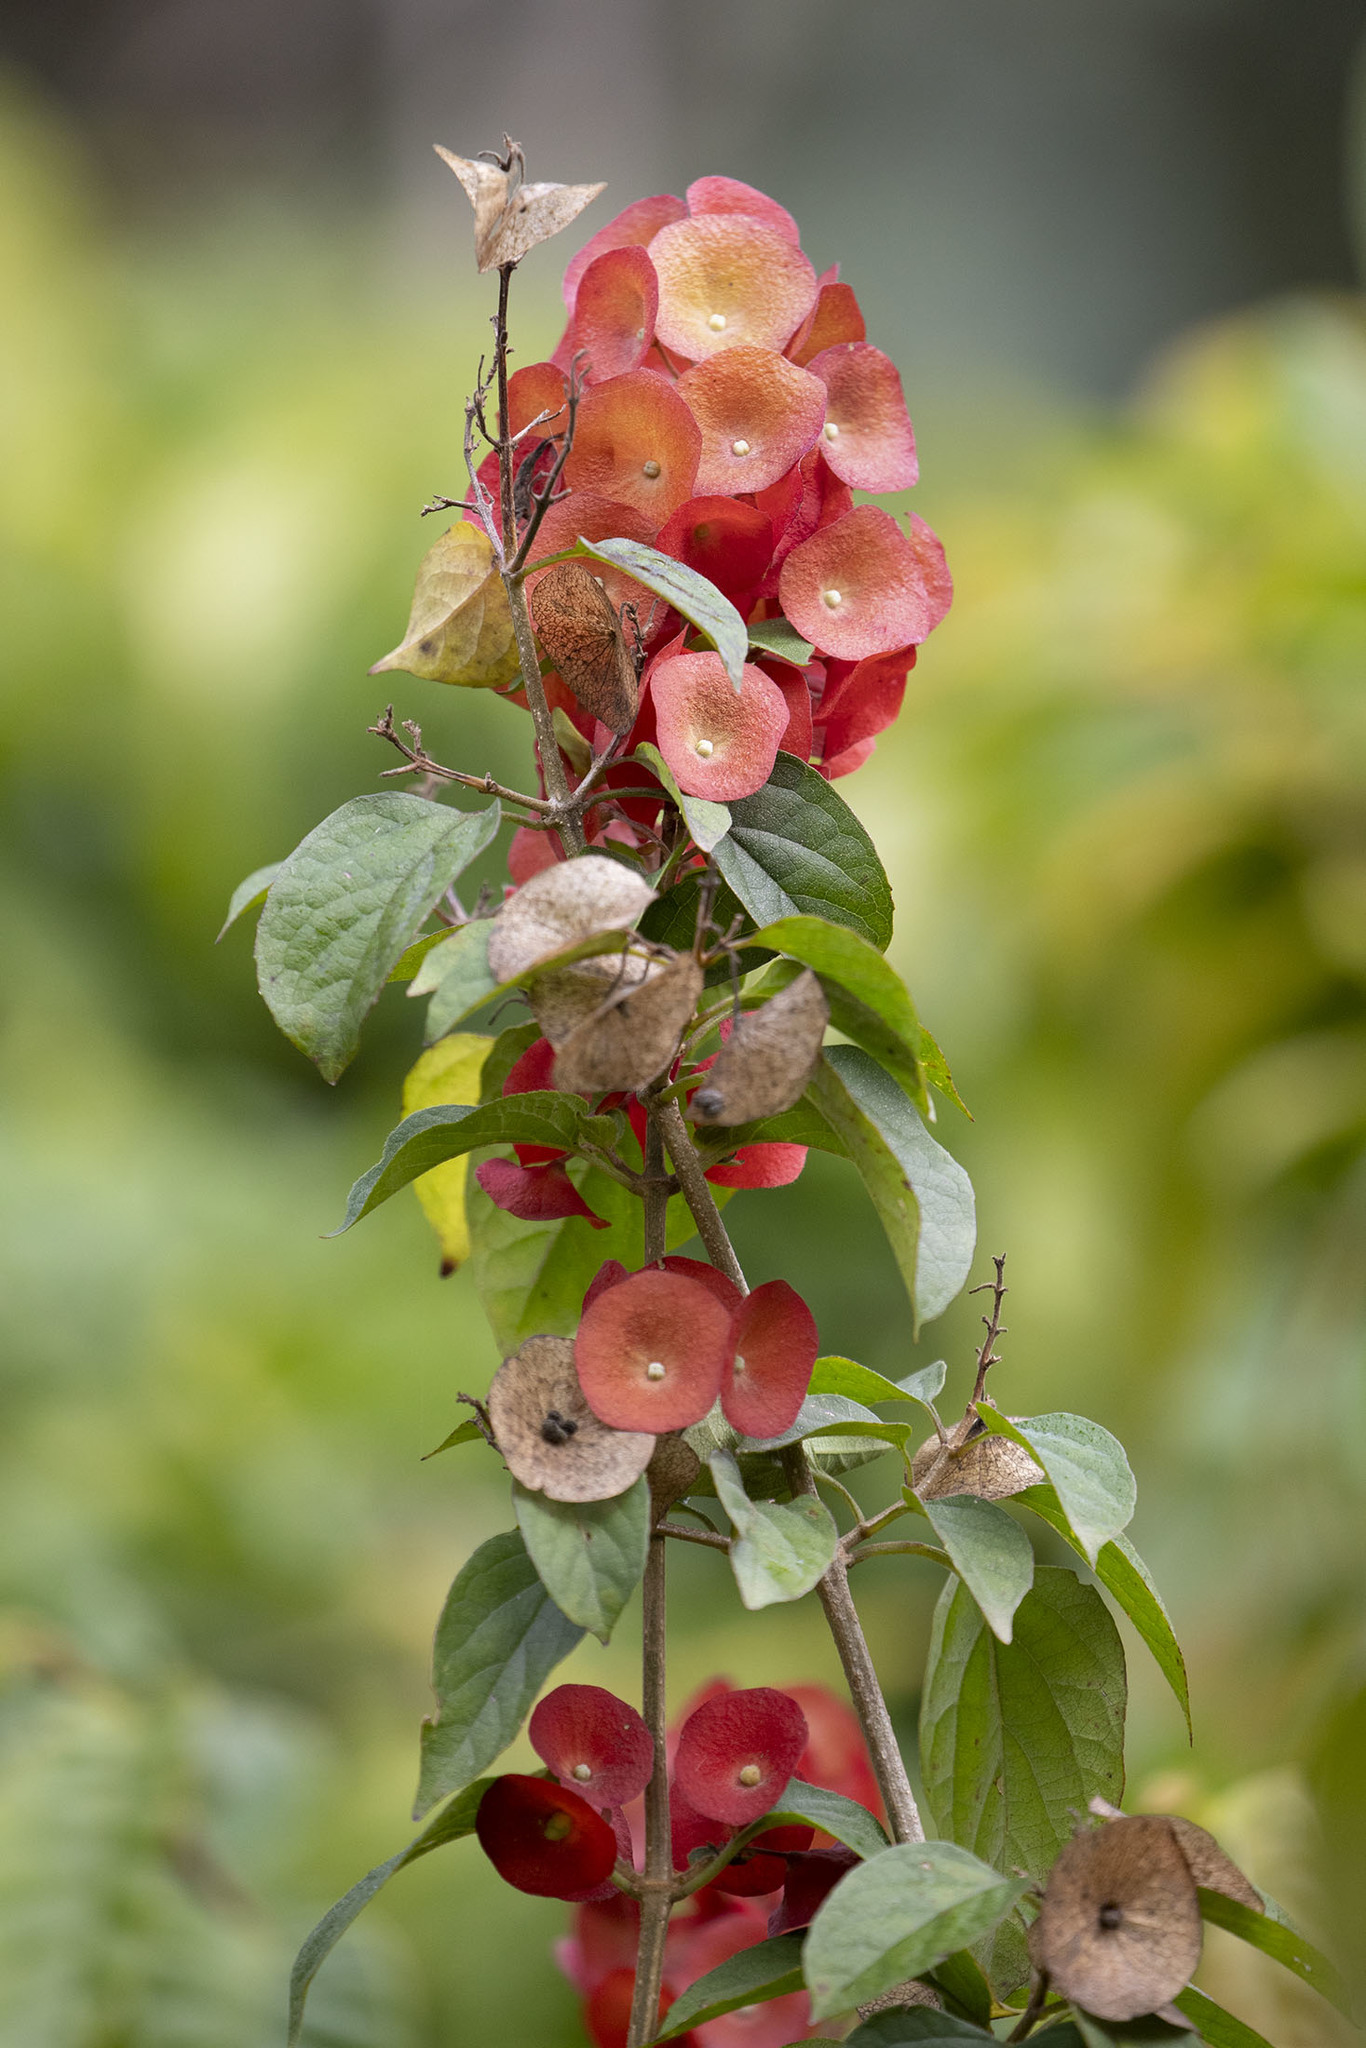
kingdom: Plantae
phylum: Tracheophyta
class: Magnoliopsida
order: Lamiales
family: Lamiaceae
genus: Holmskioldia
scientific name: Holmskioldia sanguinea
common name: Chinese hatplant
